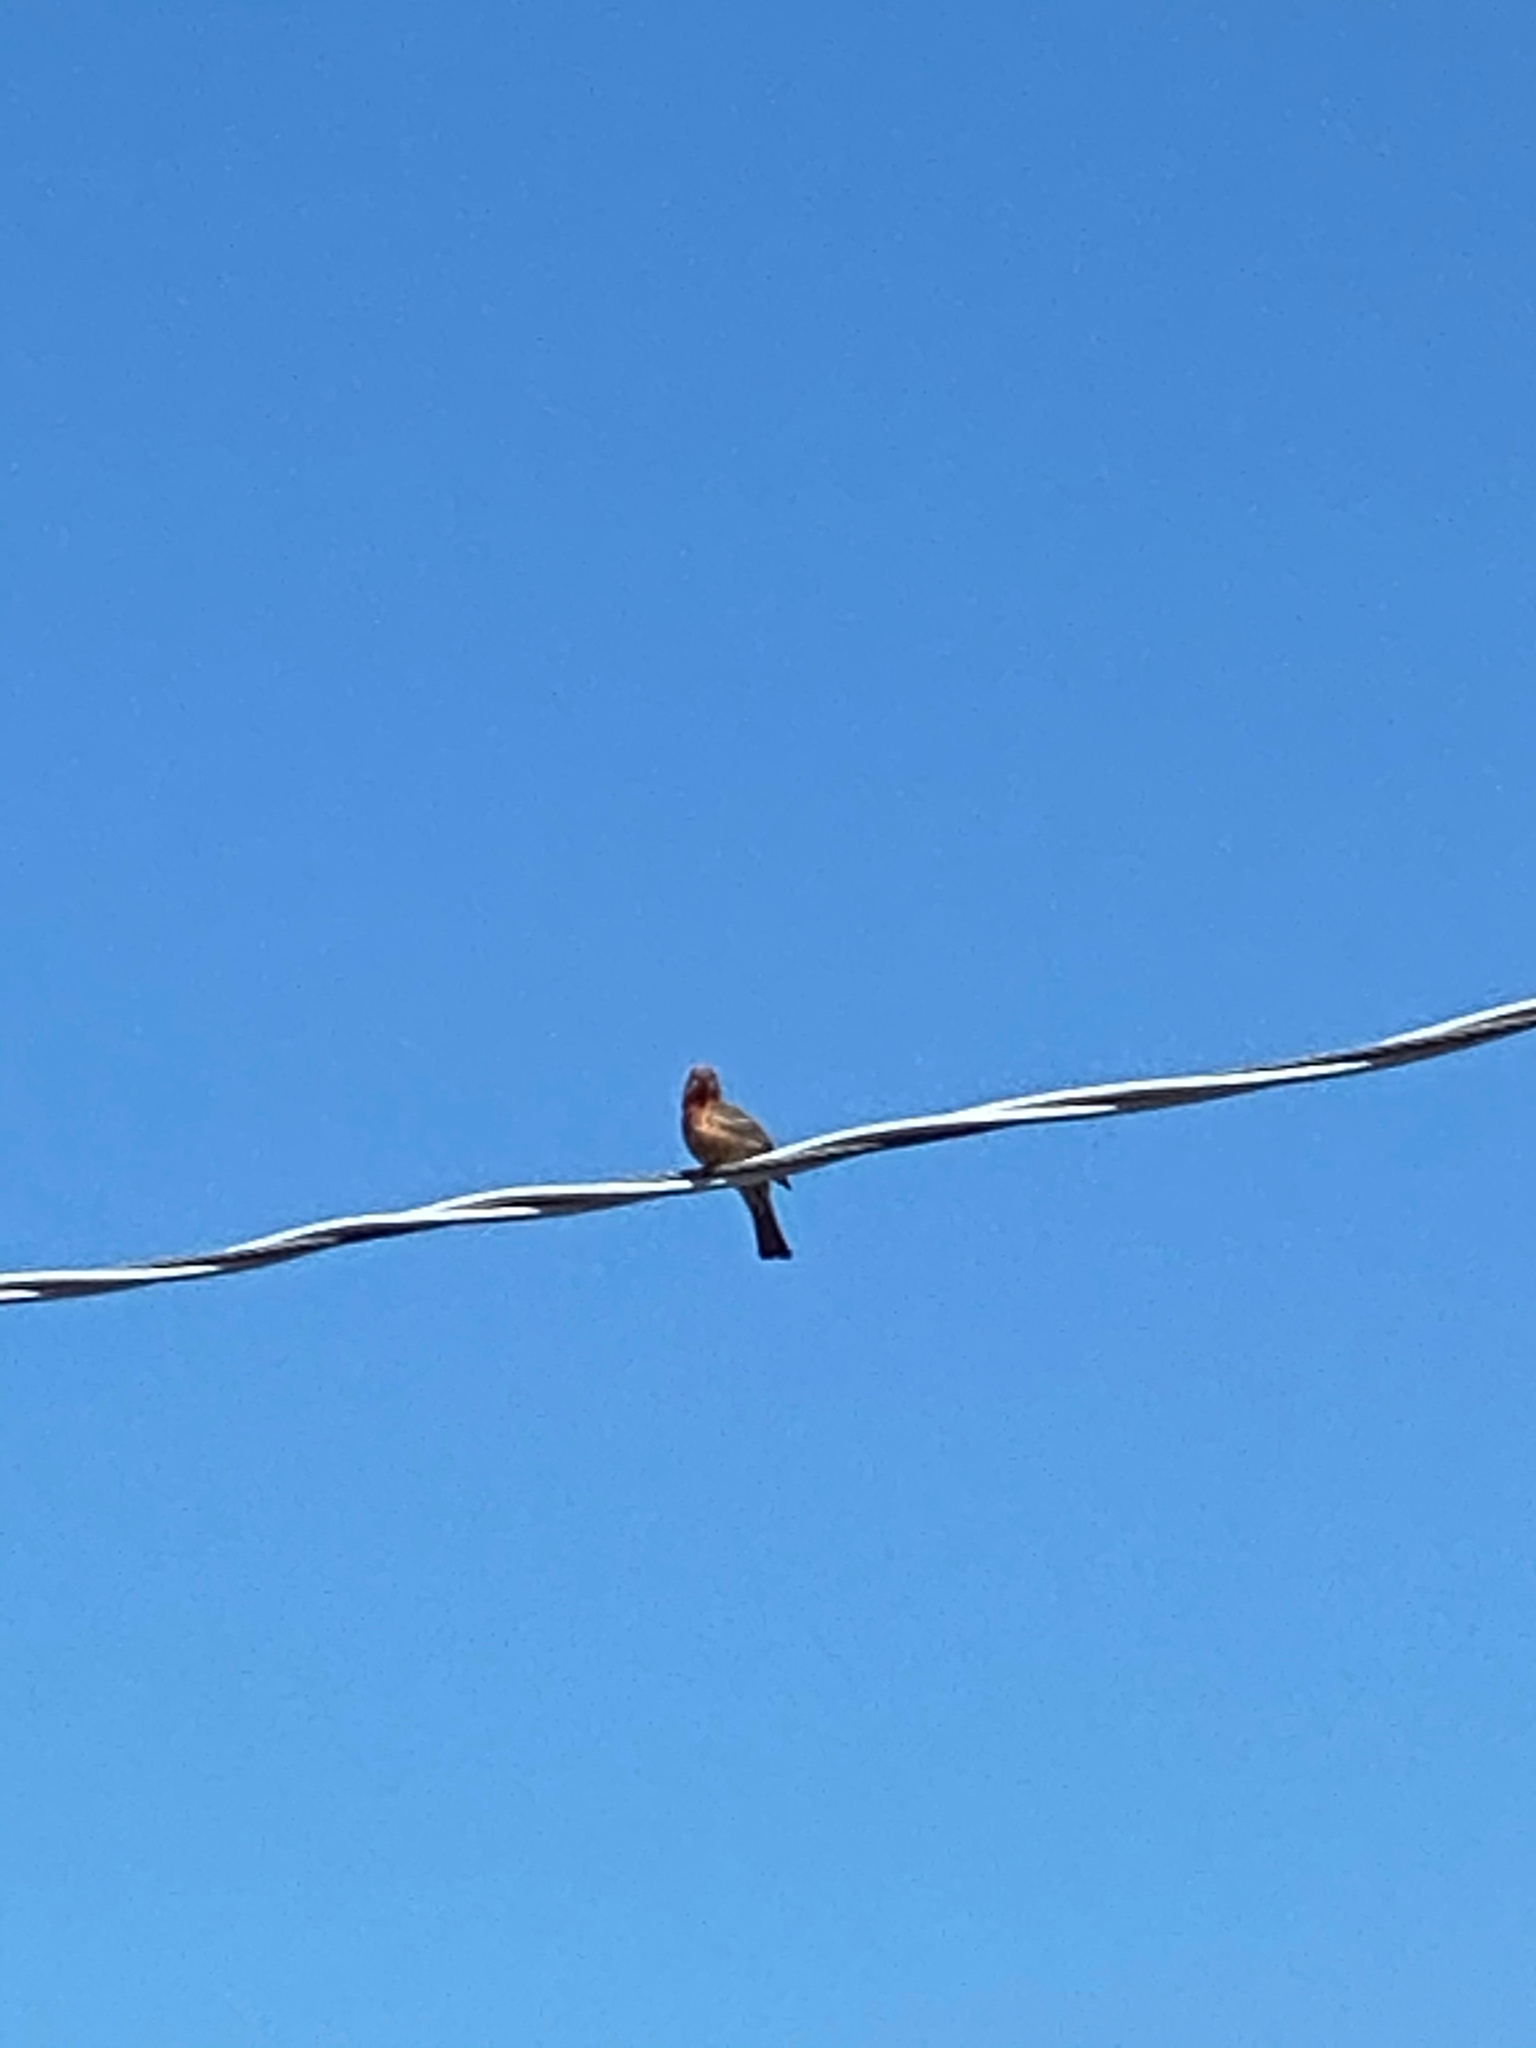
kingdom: Animalia
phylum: Chordata
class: Aves
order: Passeriformes
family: Fringillidae
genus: Haemorhous
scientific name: Haemorhous mexicanus
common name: House finch
